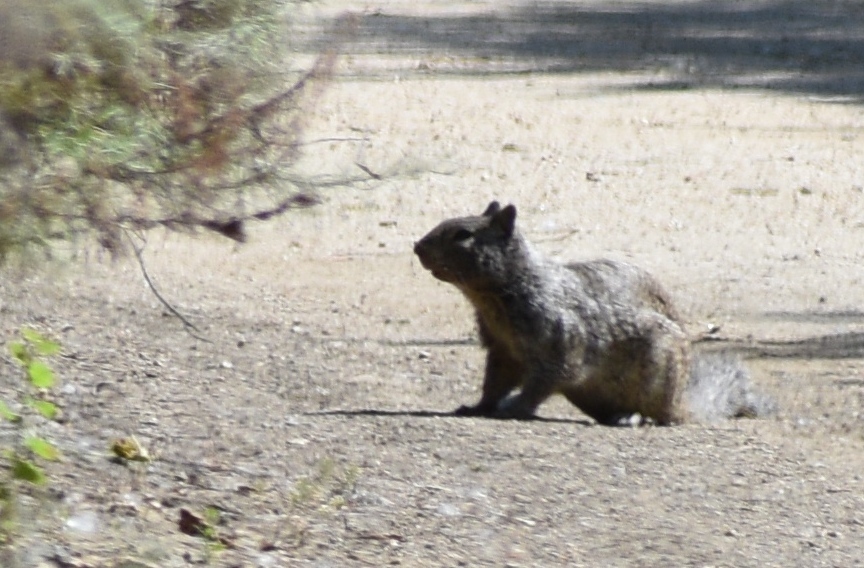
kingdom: Animalia
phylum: Chordata
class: Mammalia
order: Rodentia
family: Sciuridae
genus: Otospermophilus
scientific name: Otospermophilus beecheyi
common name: California ground squirrel
